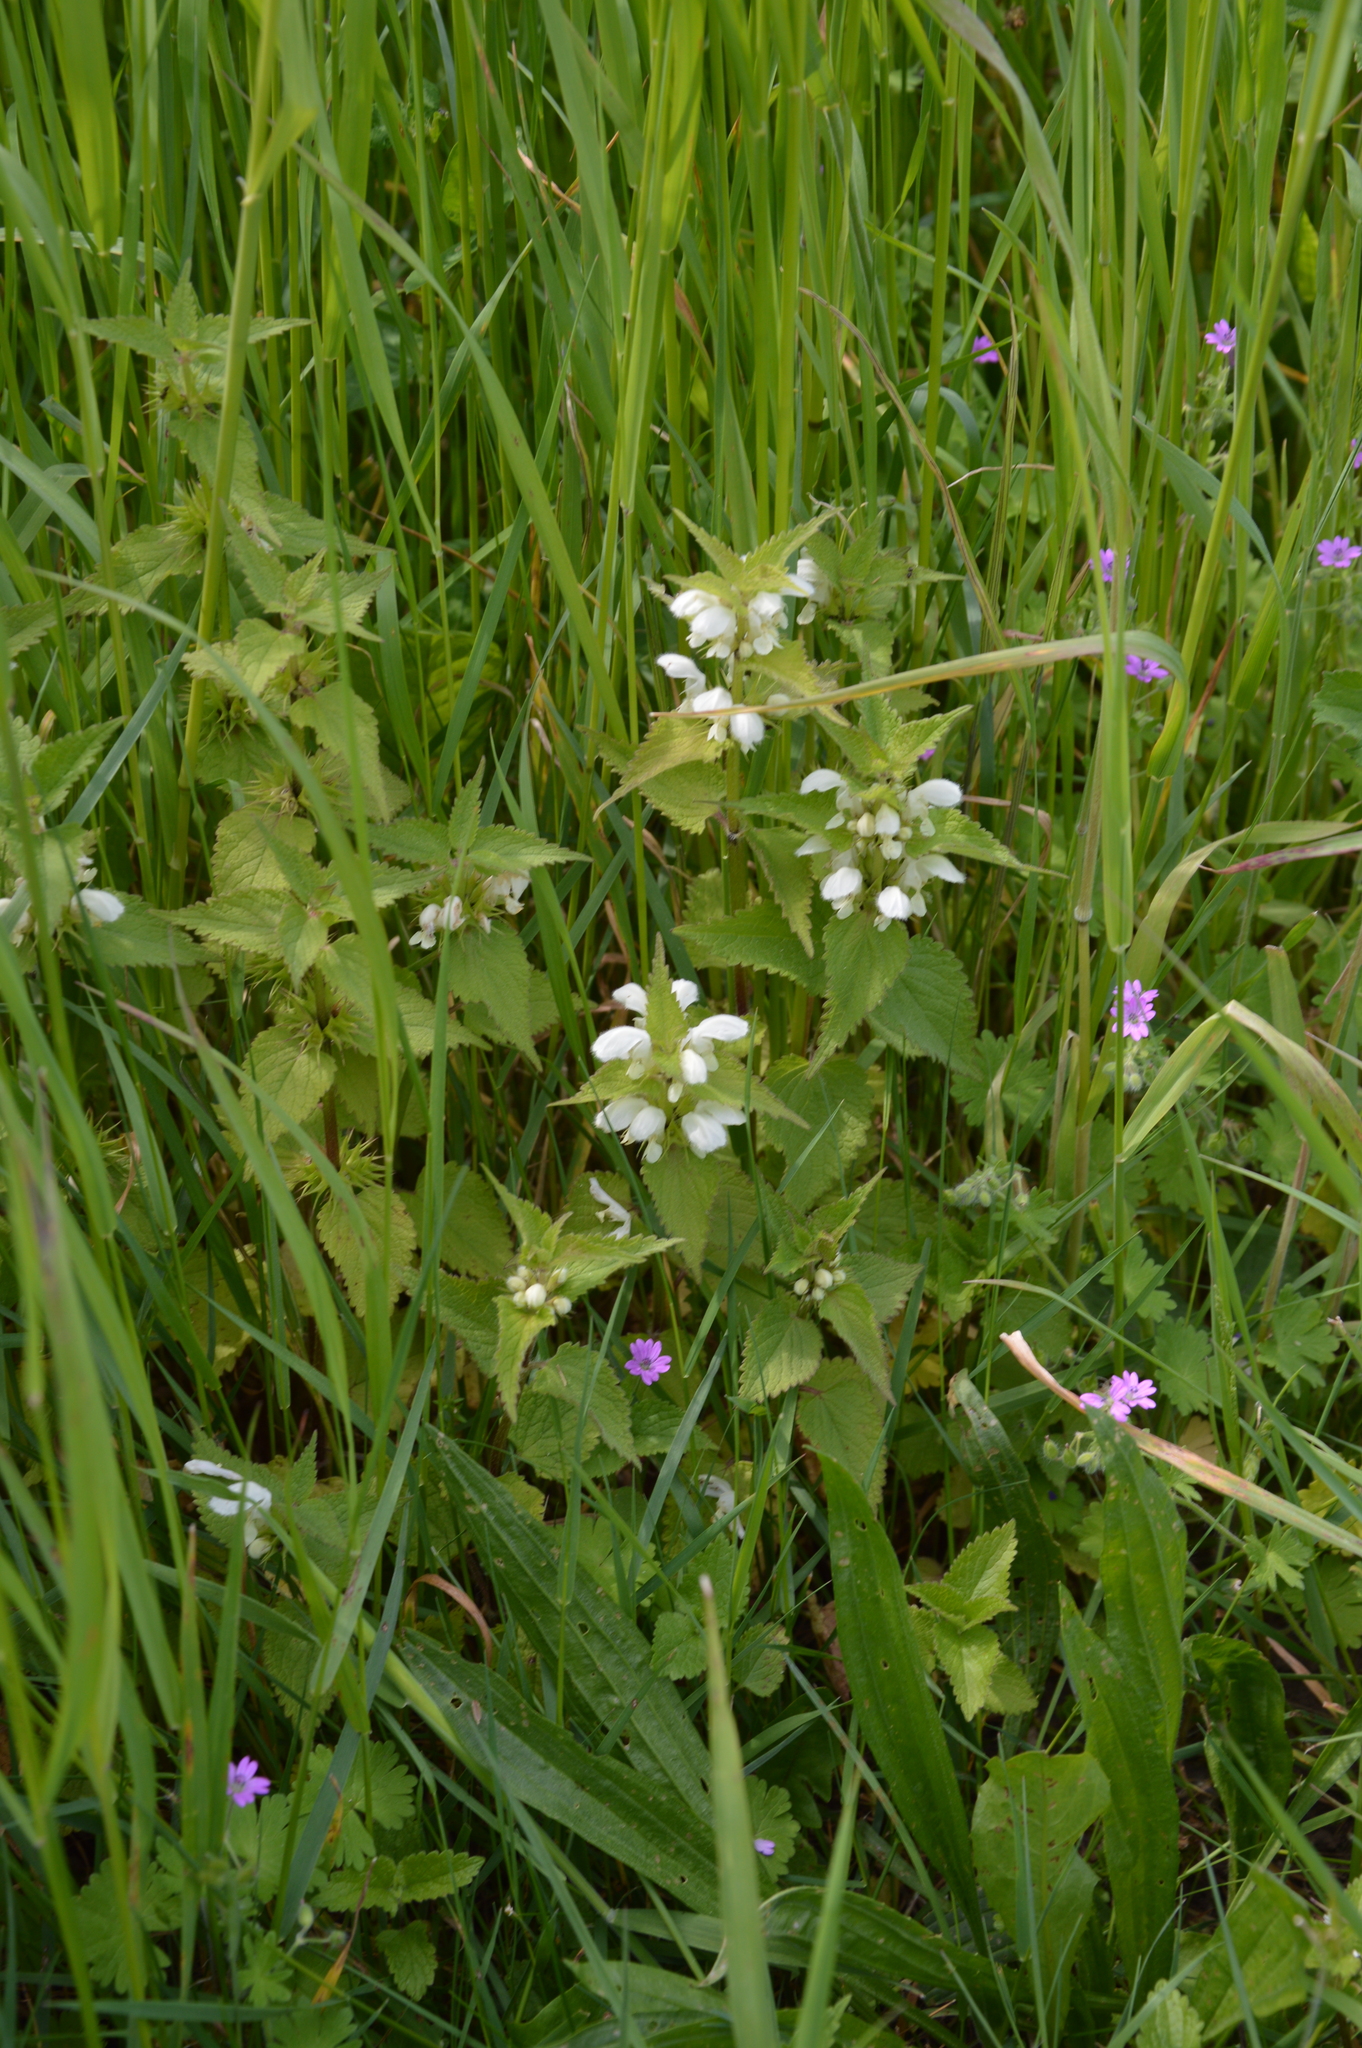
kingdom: Plantae
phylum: Tracheophyta
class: Magnoliopsida
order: Lamiales
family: Lamiaceae
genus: Lamium
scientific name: Lamium album
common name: White dead-nettle
